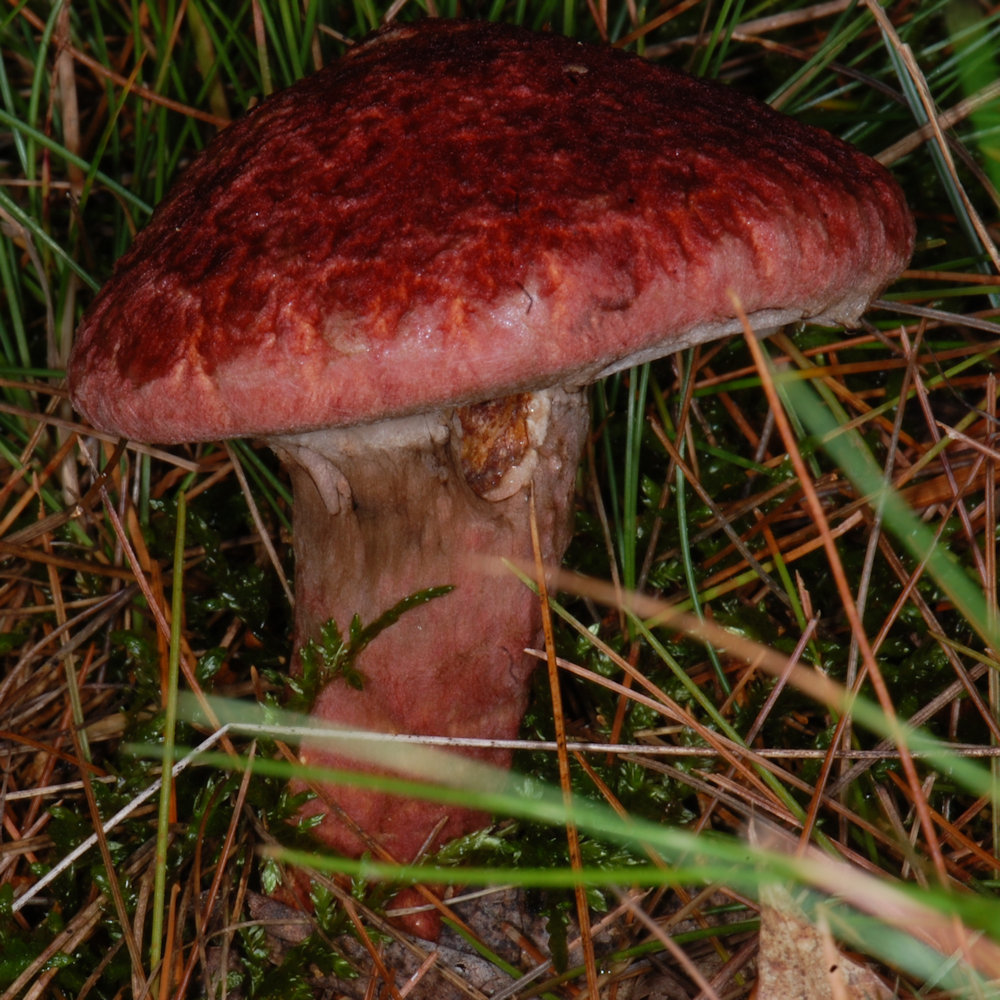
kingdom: Fungi
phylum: Basidiomycota
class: Agaricomycetes
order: Boletales
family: Suillaceae
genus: Suillus
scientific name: Suillus spraguei
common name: Painted suillus
